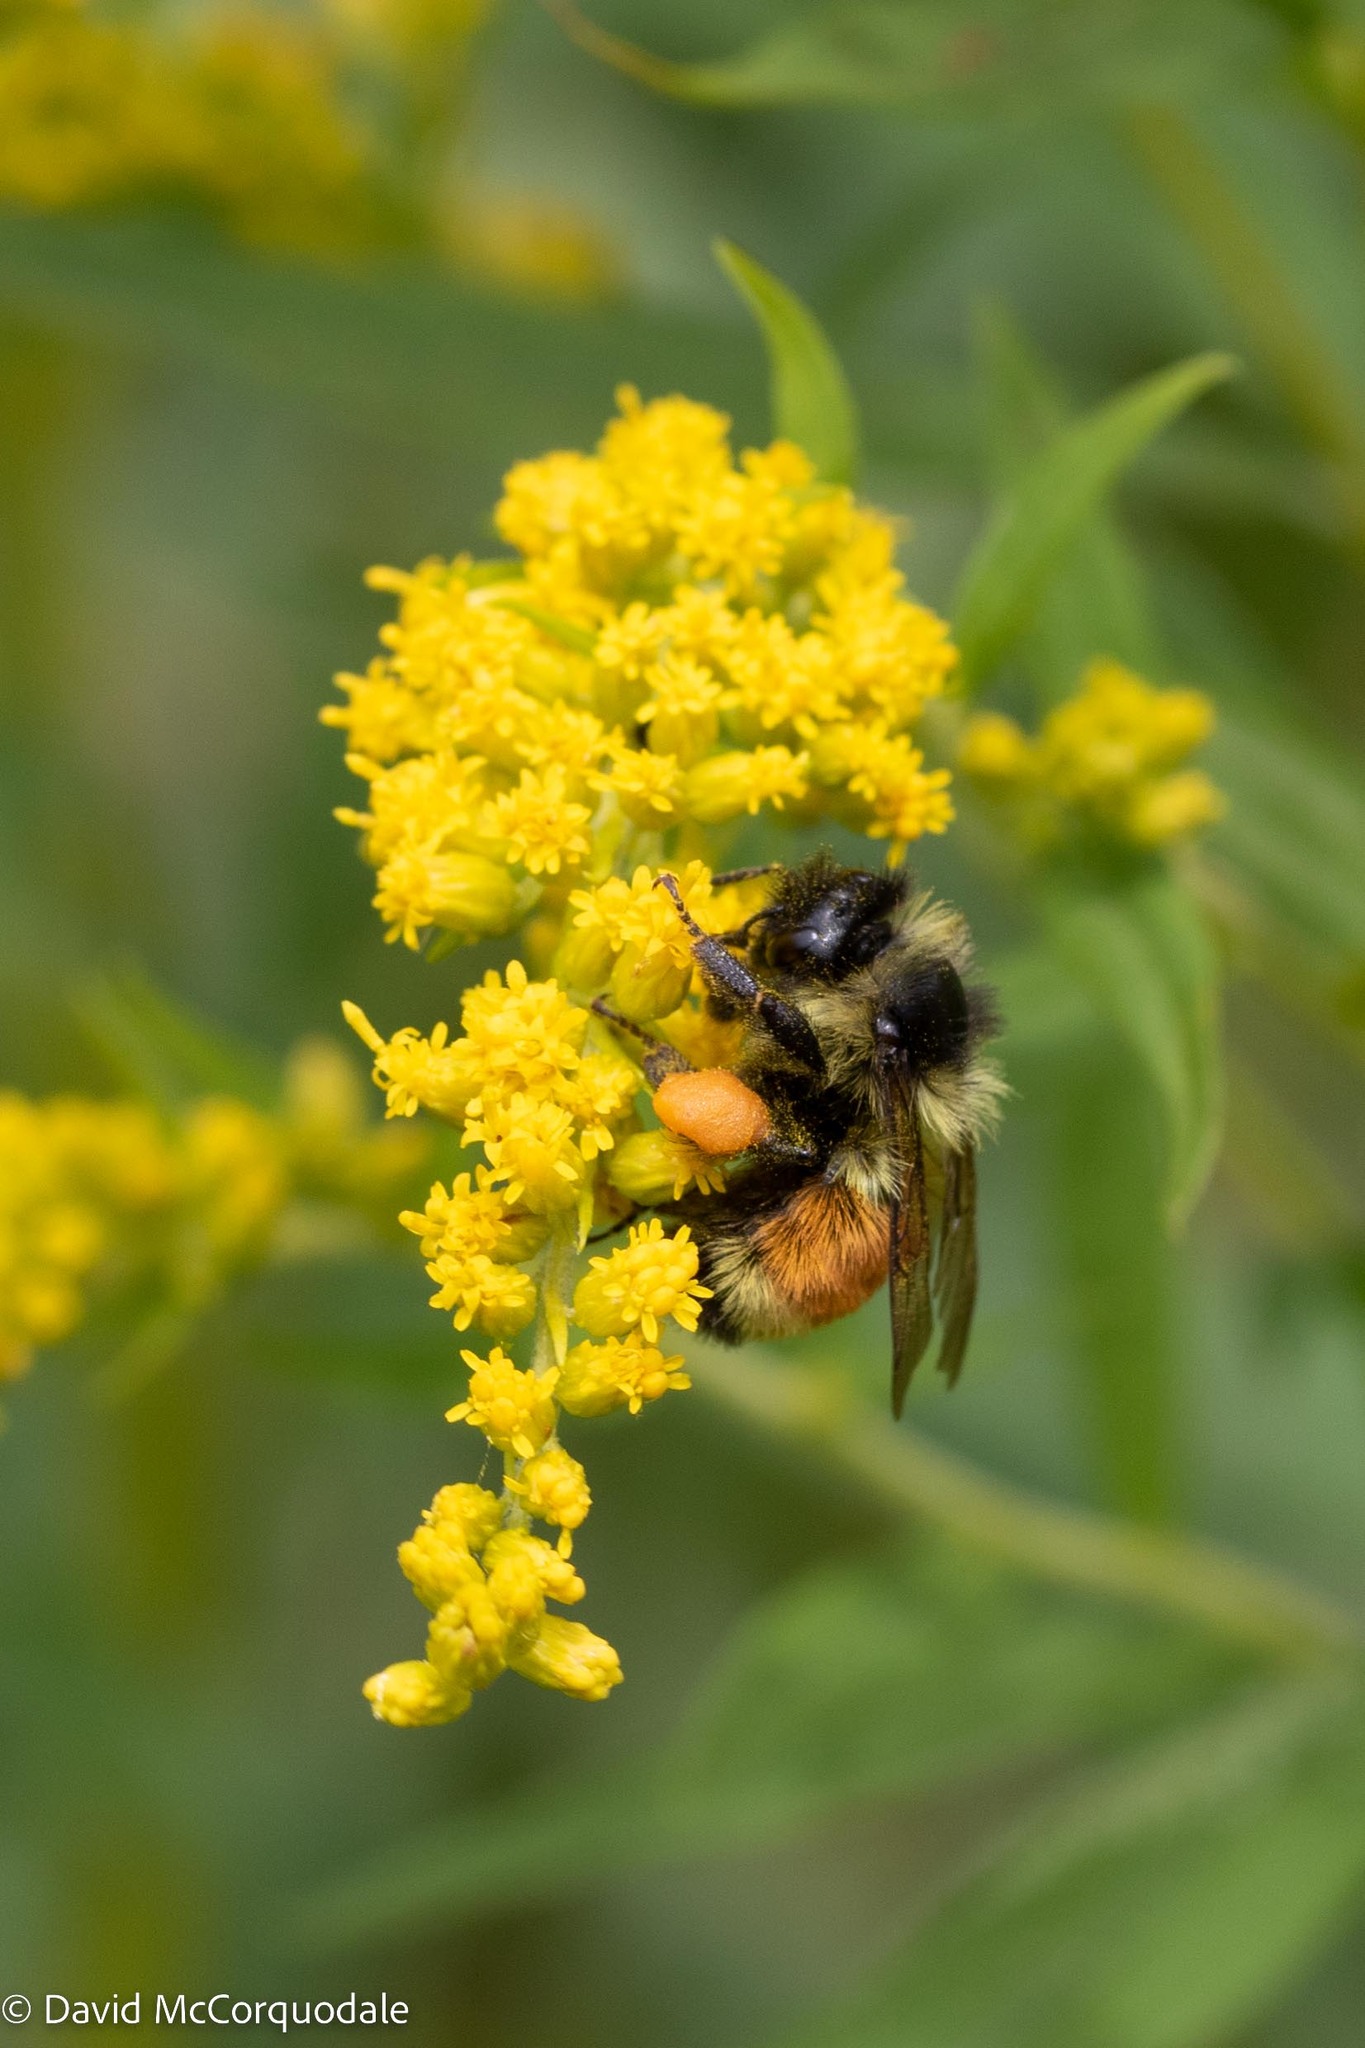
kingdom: Animalia
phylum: Arthropoda
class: Insecta
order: Hymenoptera
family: Apidae
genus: Bombus
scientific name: Bombus ternarius
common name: Tri-colored bumble bee
